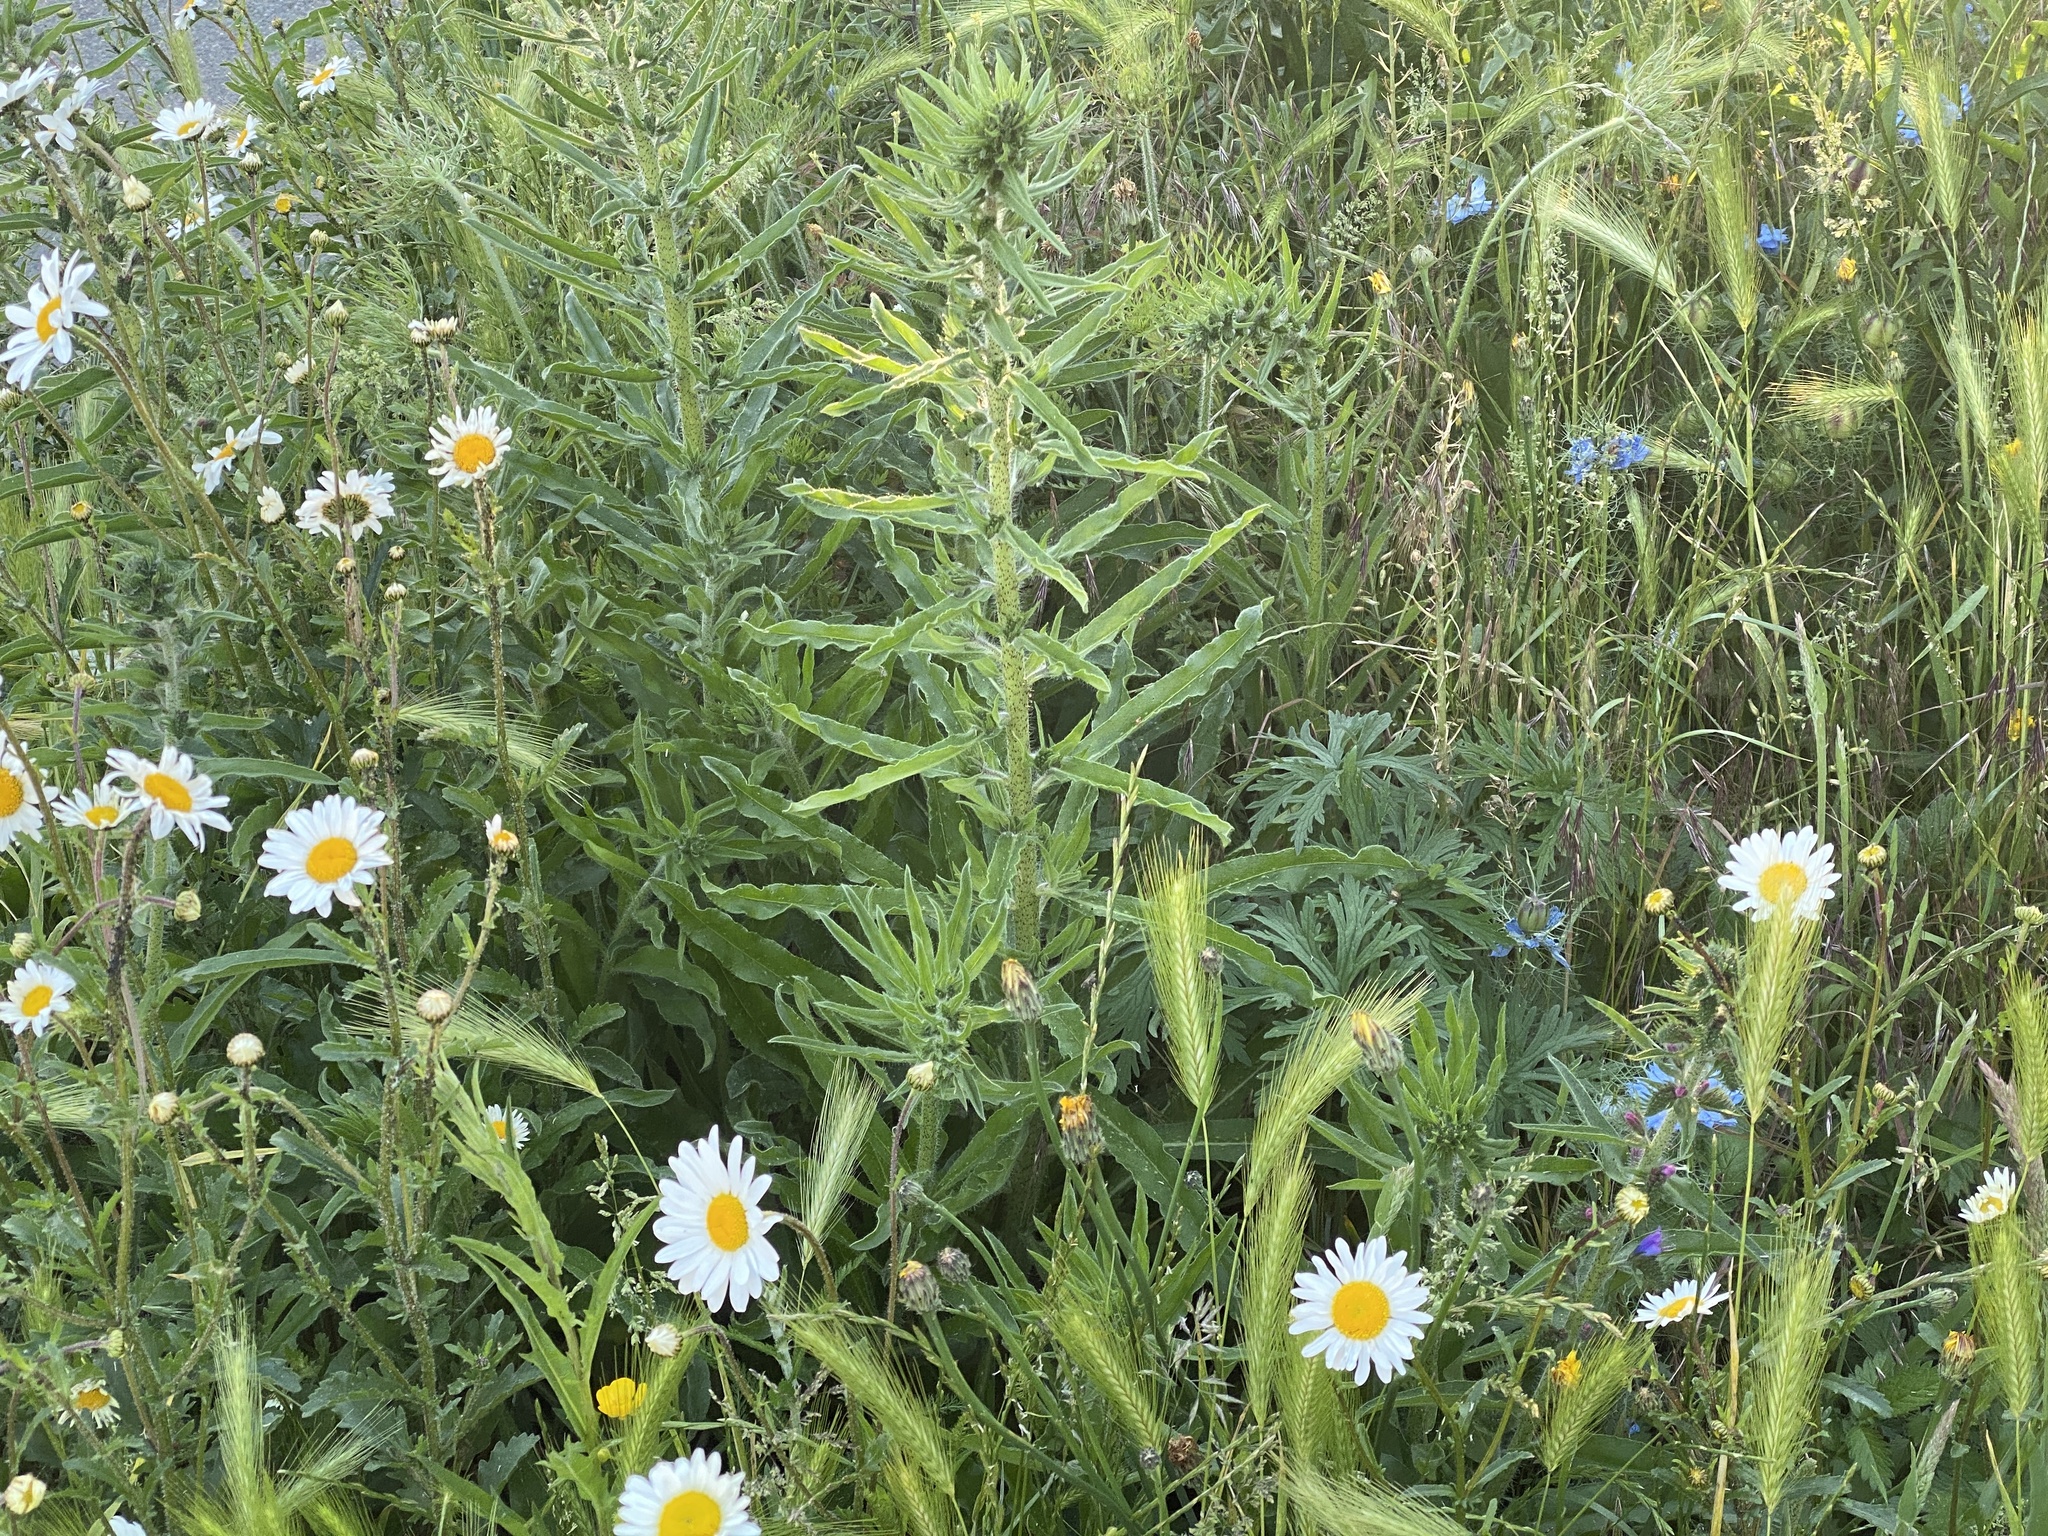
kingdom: Plantae
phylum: Tracheophyta
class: Magnoliopsida
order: Boraginales
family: Boraginaceae
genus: Echium
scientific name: Echium vulgare
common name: Common viper's bugloss
